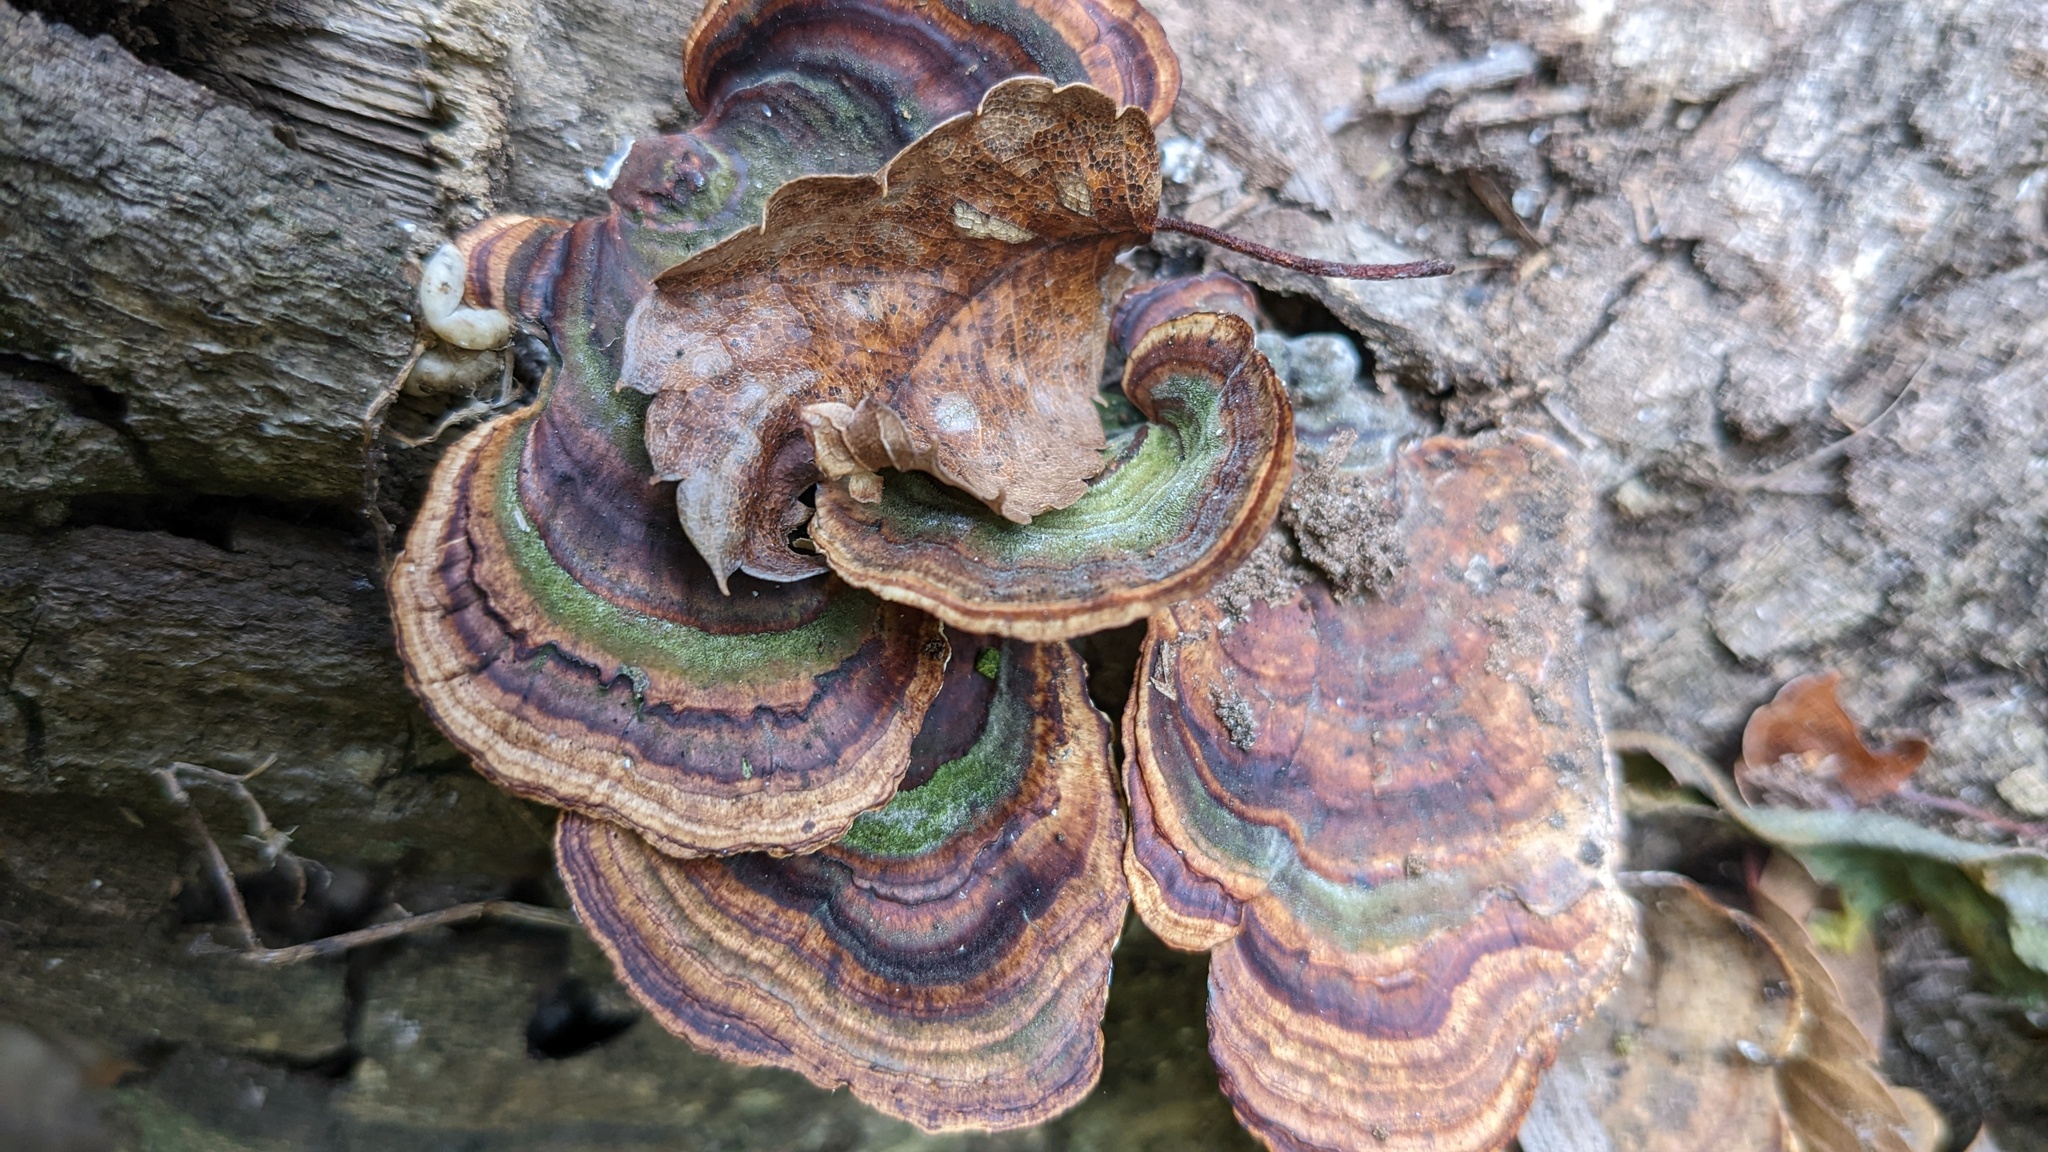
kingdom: Fungi
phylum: Basidiomycota
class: Agaricomycetes
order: Polyporales
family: Polyporaceae
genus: Microporus
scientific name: Microporus affinis
